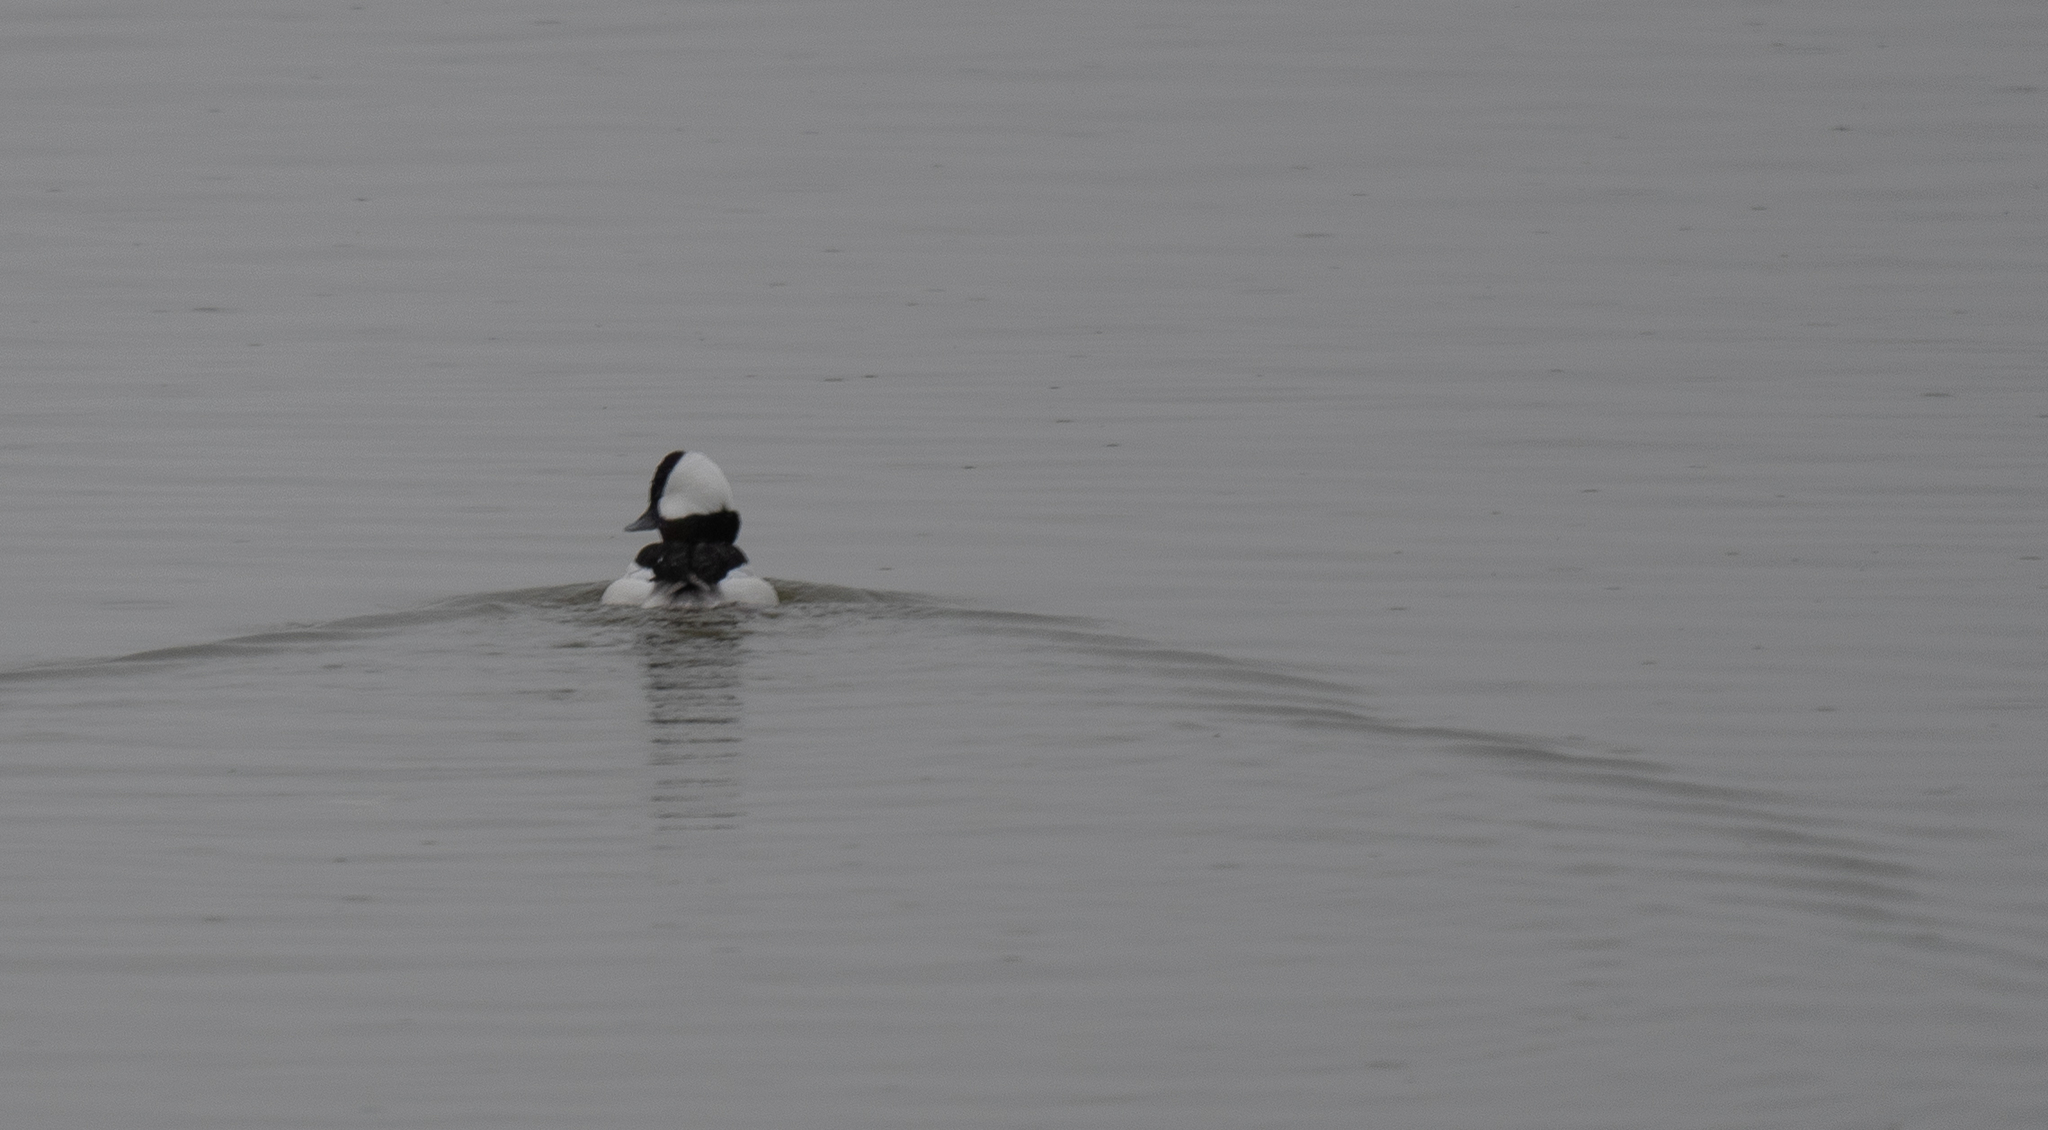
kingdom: Animalia
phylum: Chordata
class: Aves
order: Anseriformes
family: Anatidae
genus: Bucephala
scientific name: Bucephala albeola
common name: Bufflehead
